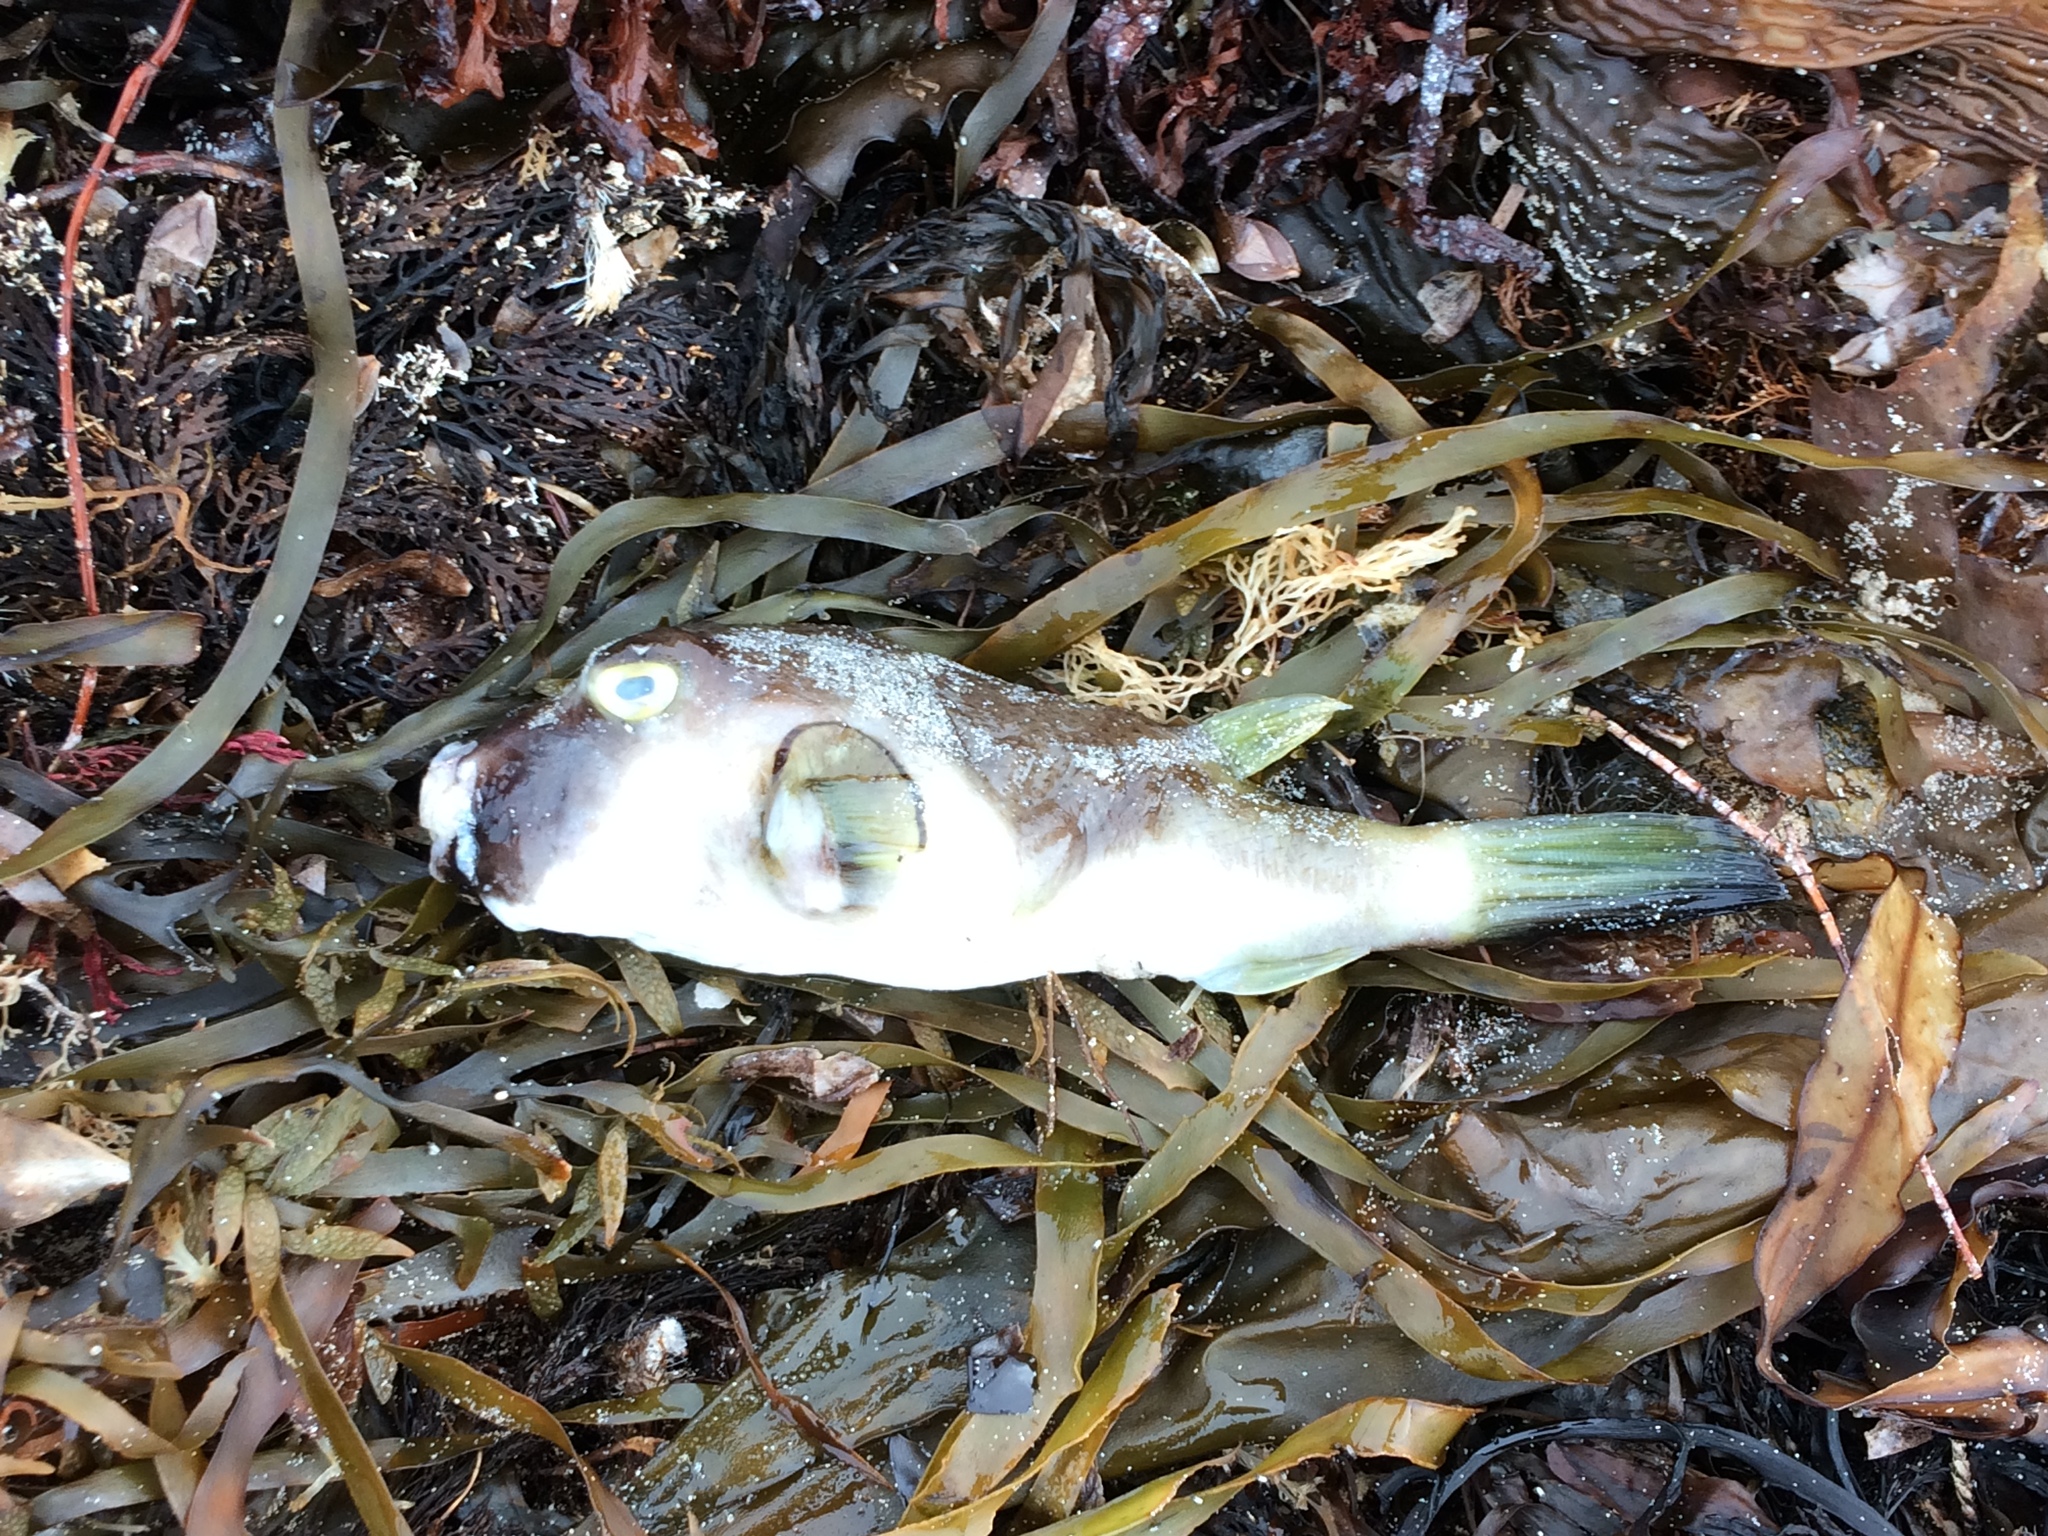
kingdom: Animalia
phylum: Chordata
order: Tetraodontiformes
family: Tetraodontidae
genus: Omegophora
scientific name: Omegophora armilla
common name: Ringed pufferfish
